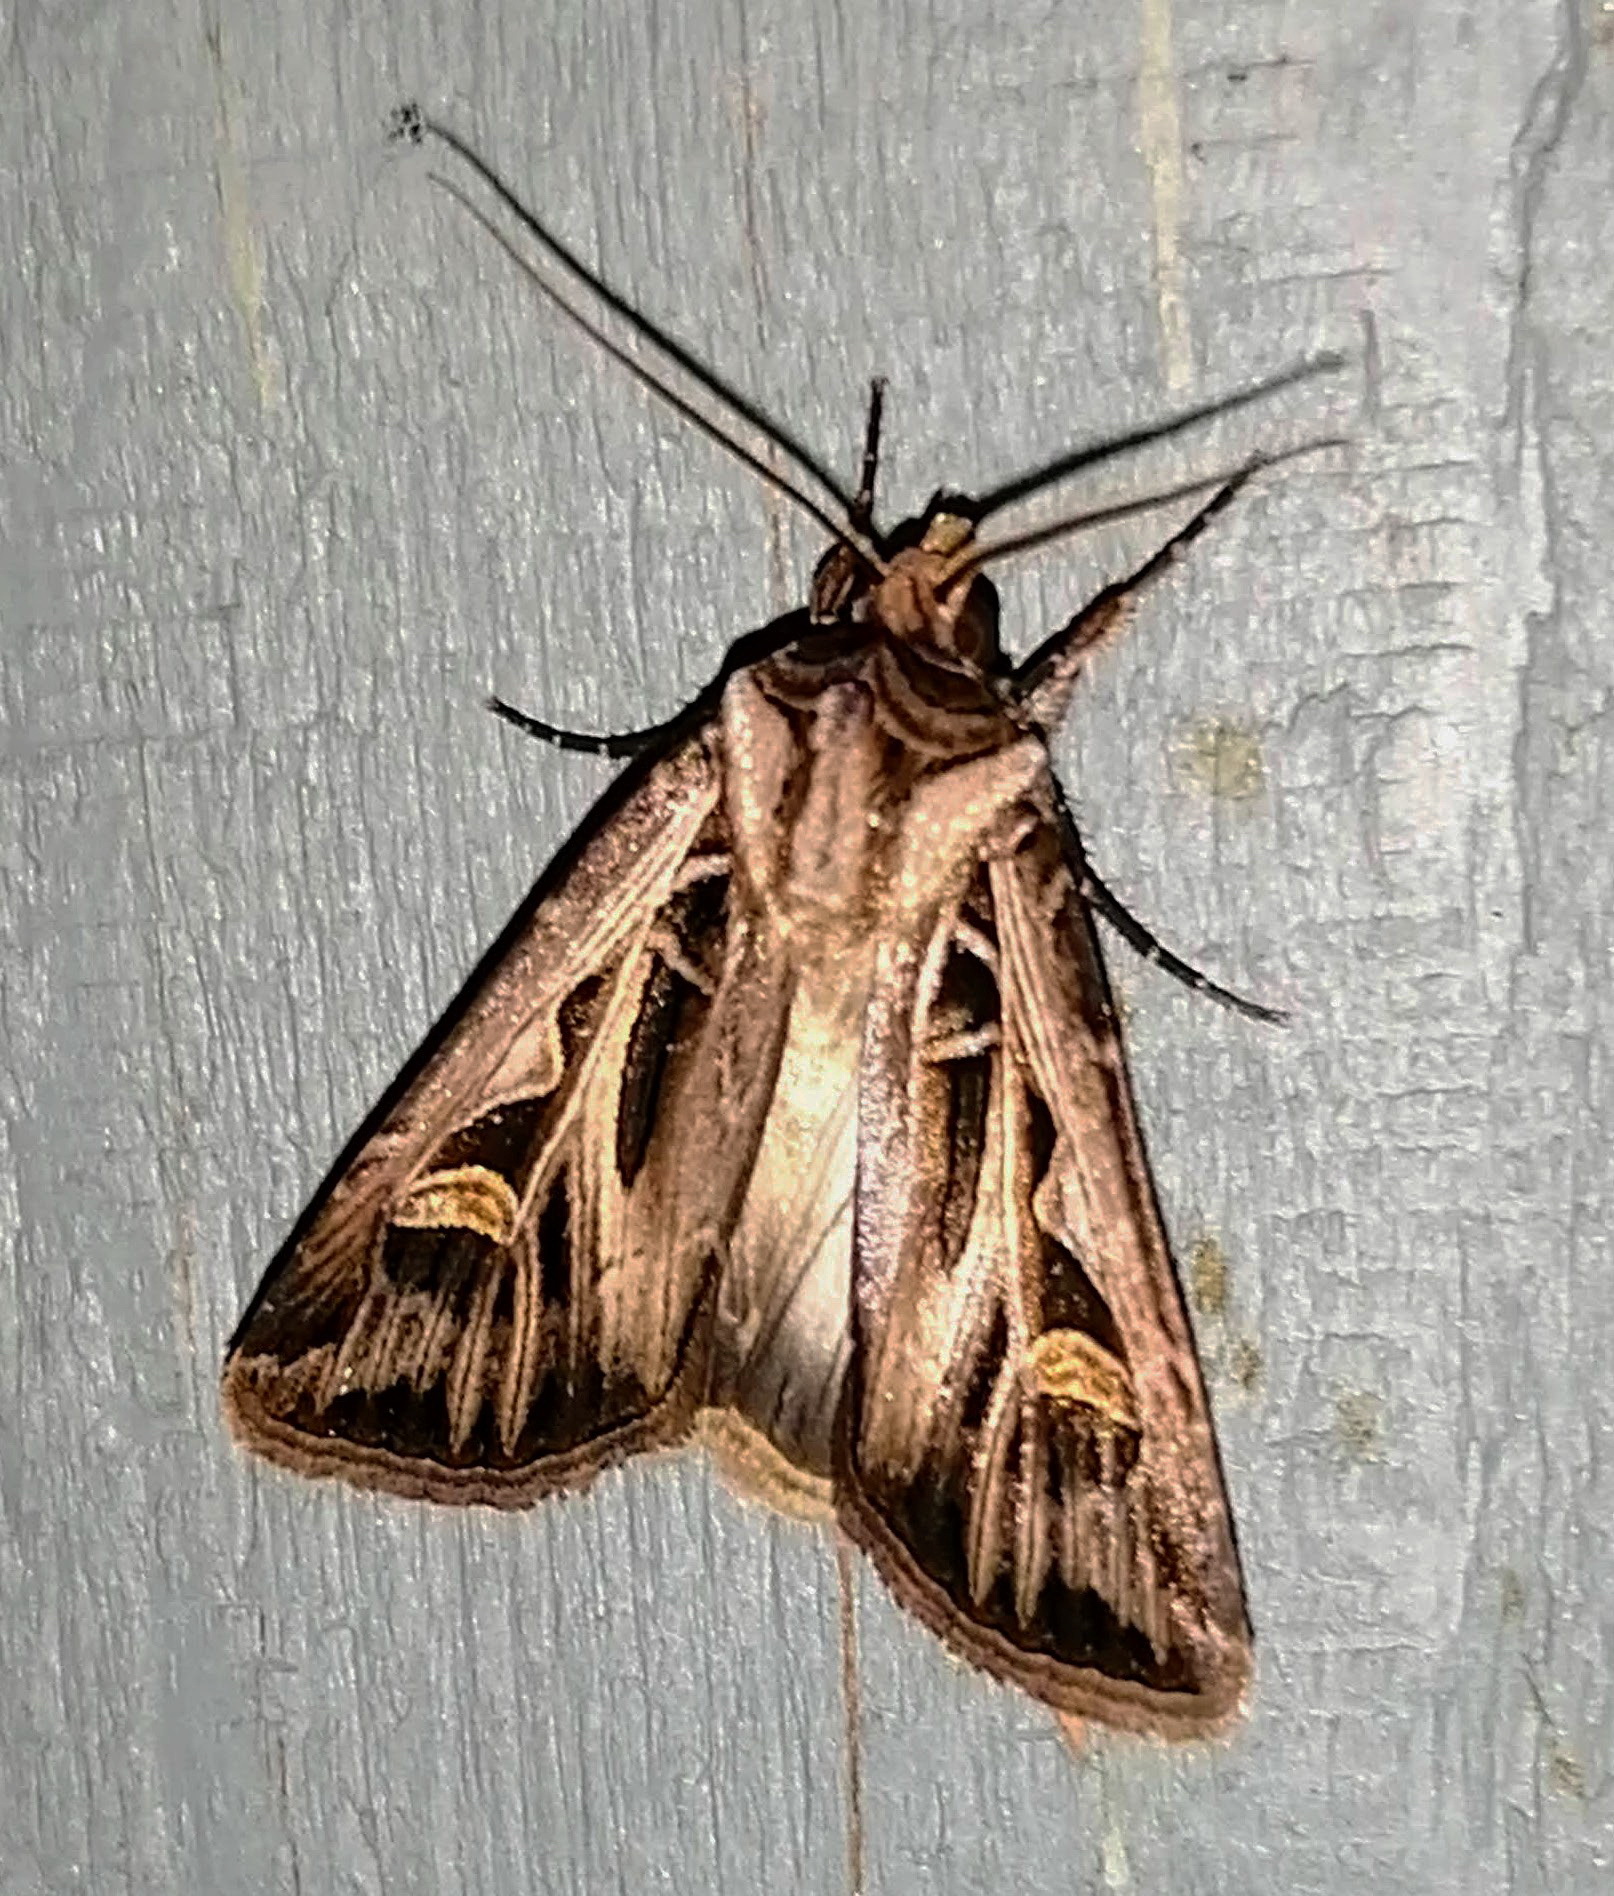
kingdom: Animalia
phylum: Arthropoda
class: Insecta
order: Lepidoptera
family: Noctuidae
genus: Feltia
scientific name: Feltia jaculifera
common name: Dingy cutworm moth
